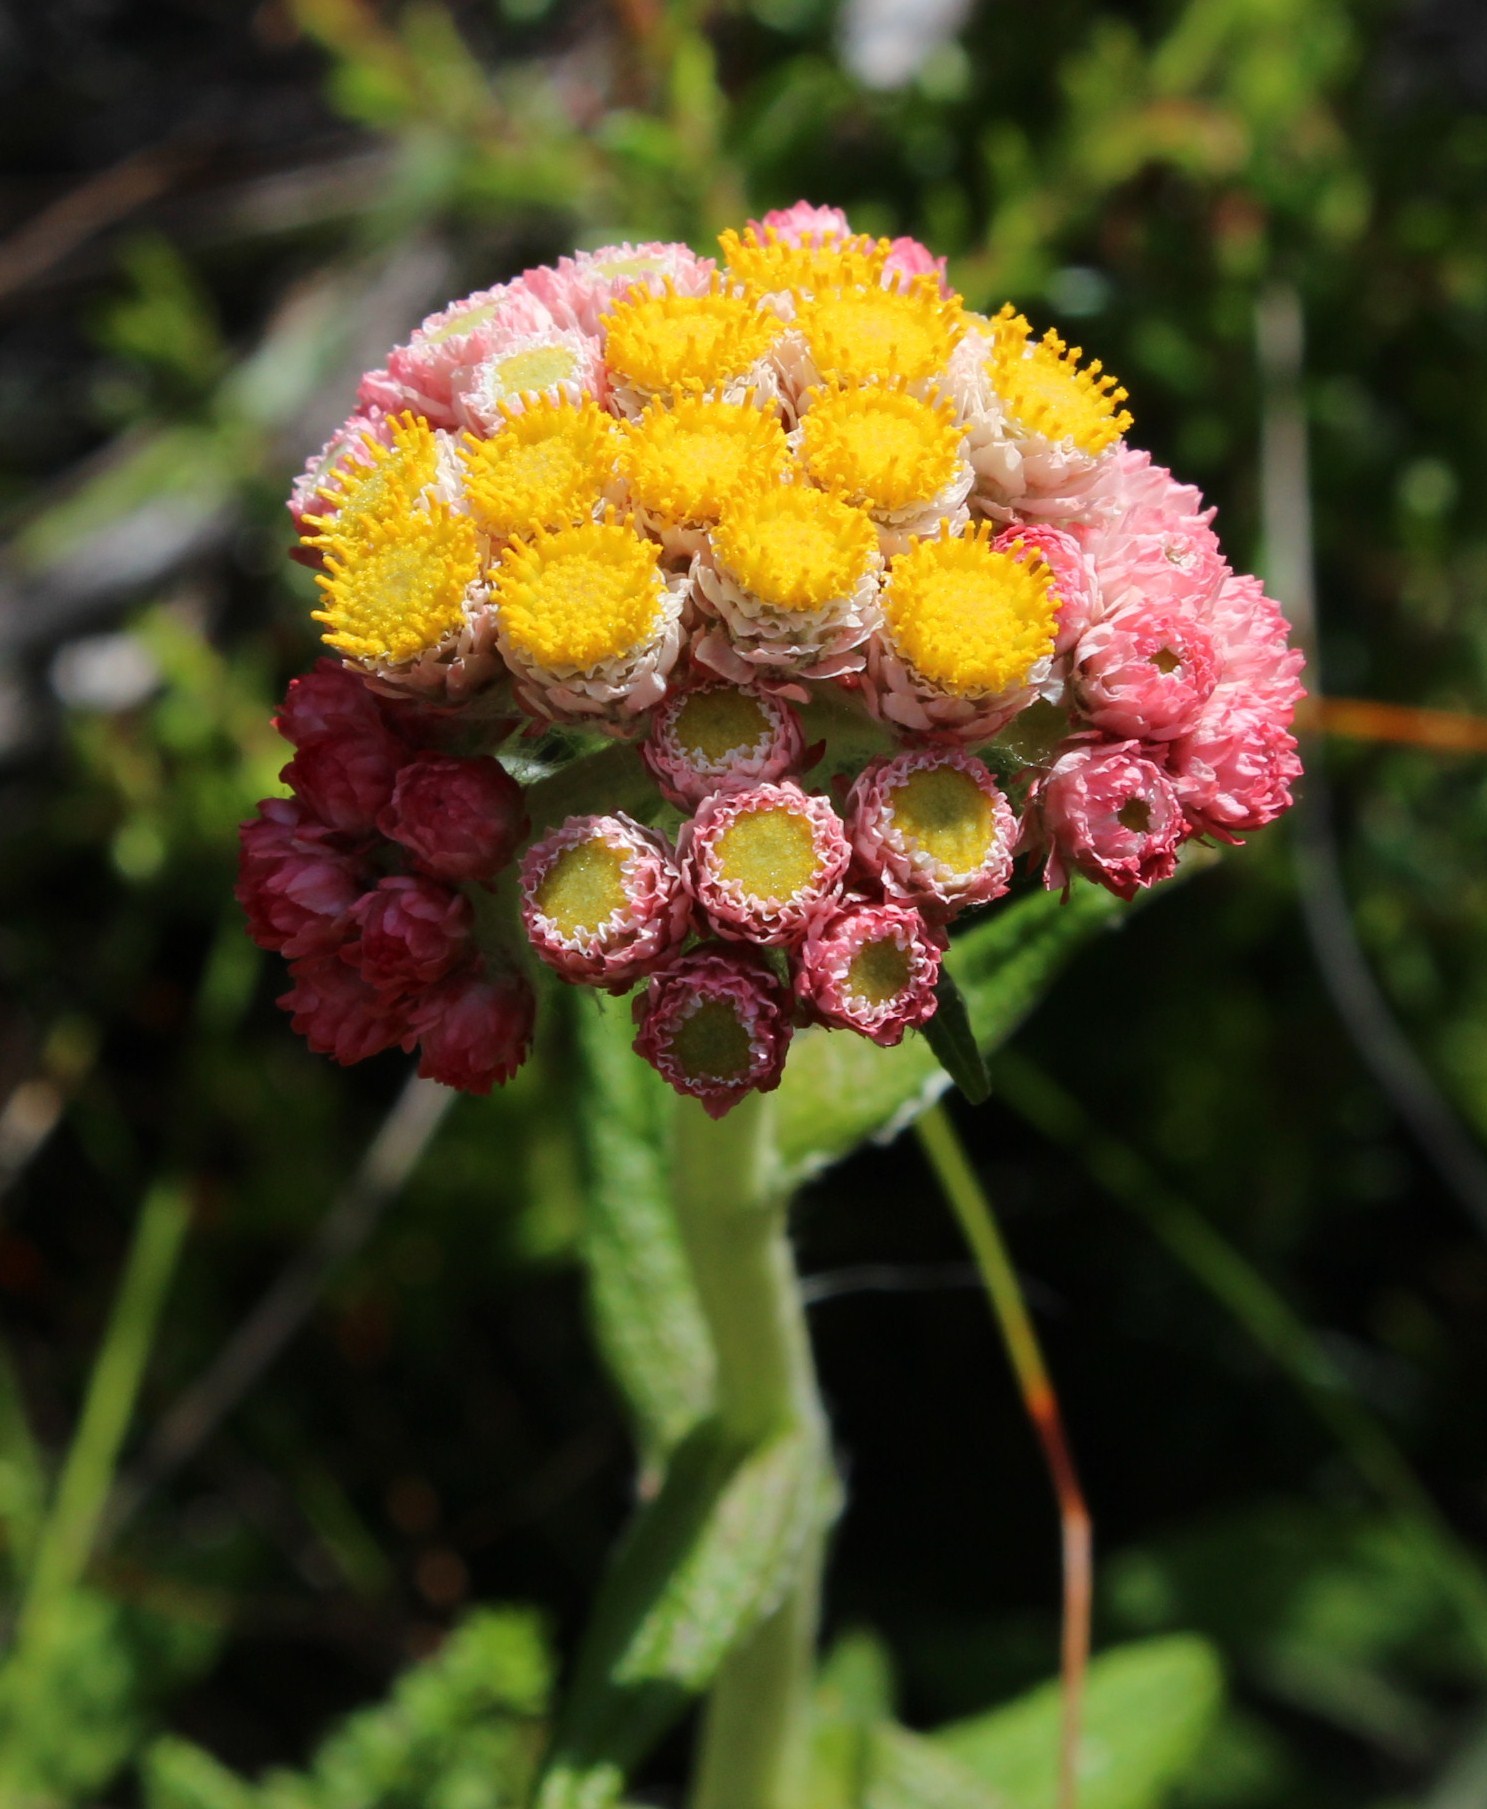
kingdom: Plantae
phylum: Tracheophyta
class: Magnoliopsida
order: Asterales
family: Asteraceae
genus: Helichrysum
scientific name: Helichrysum felinum
